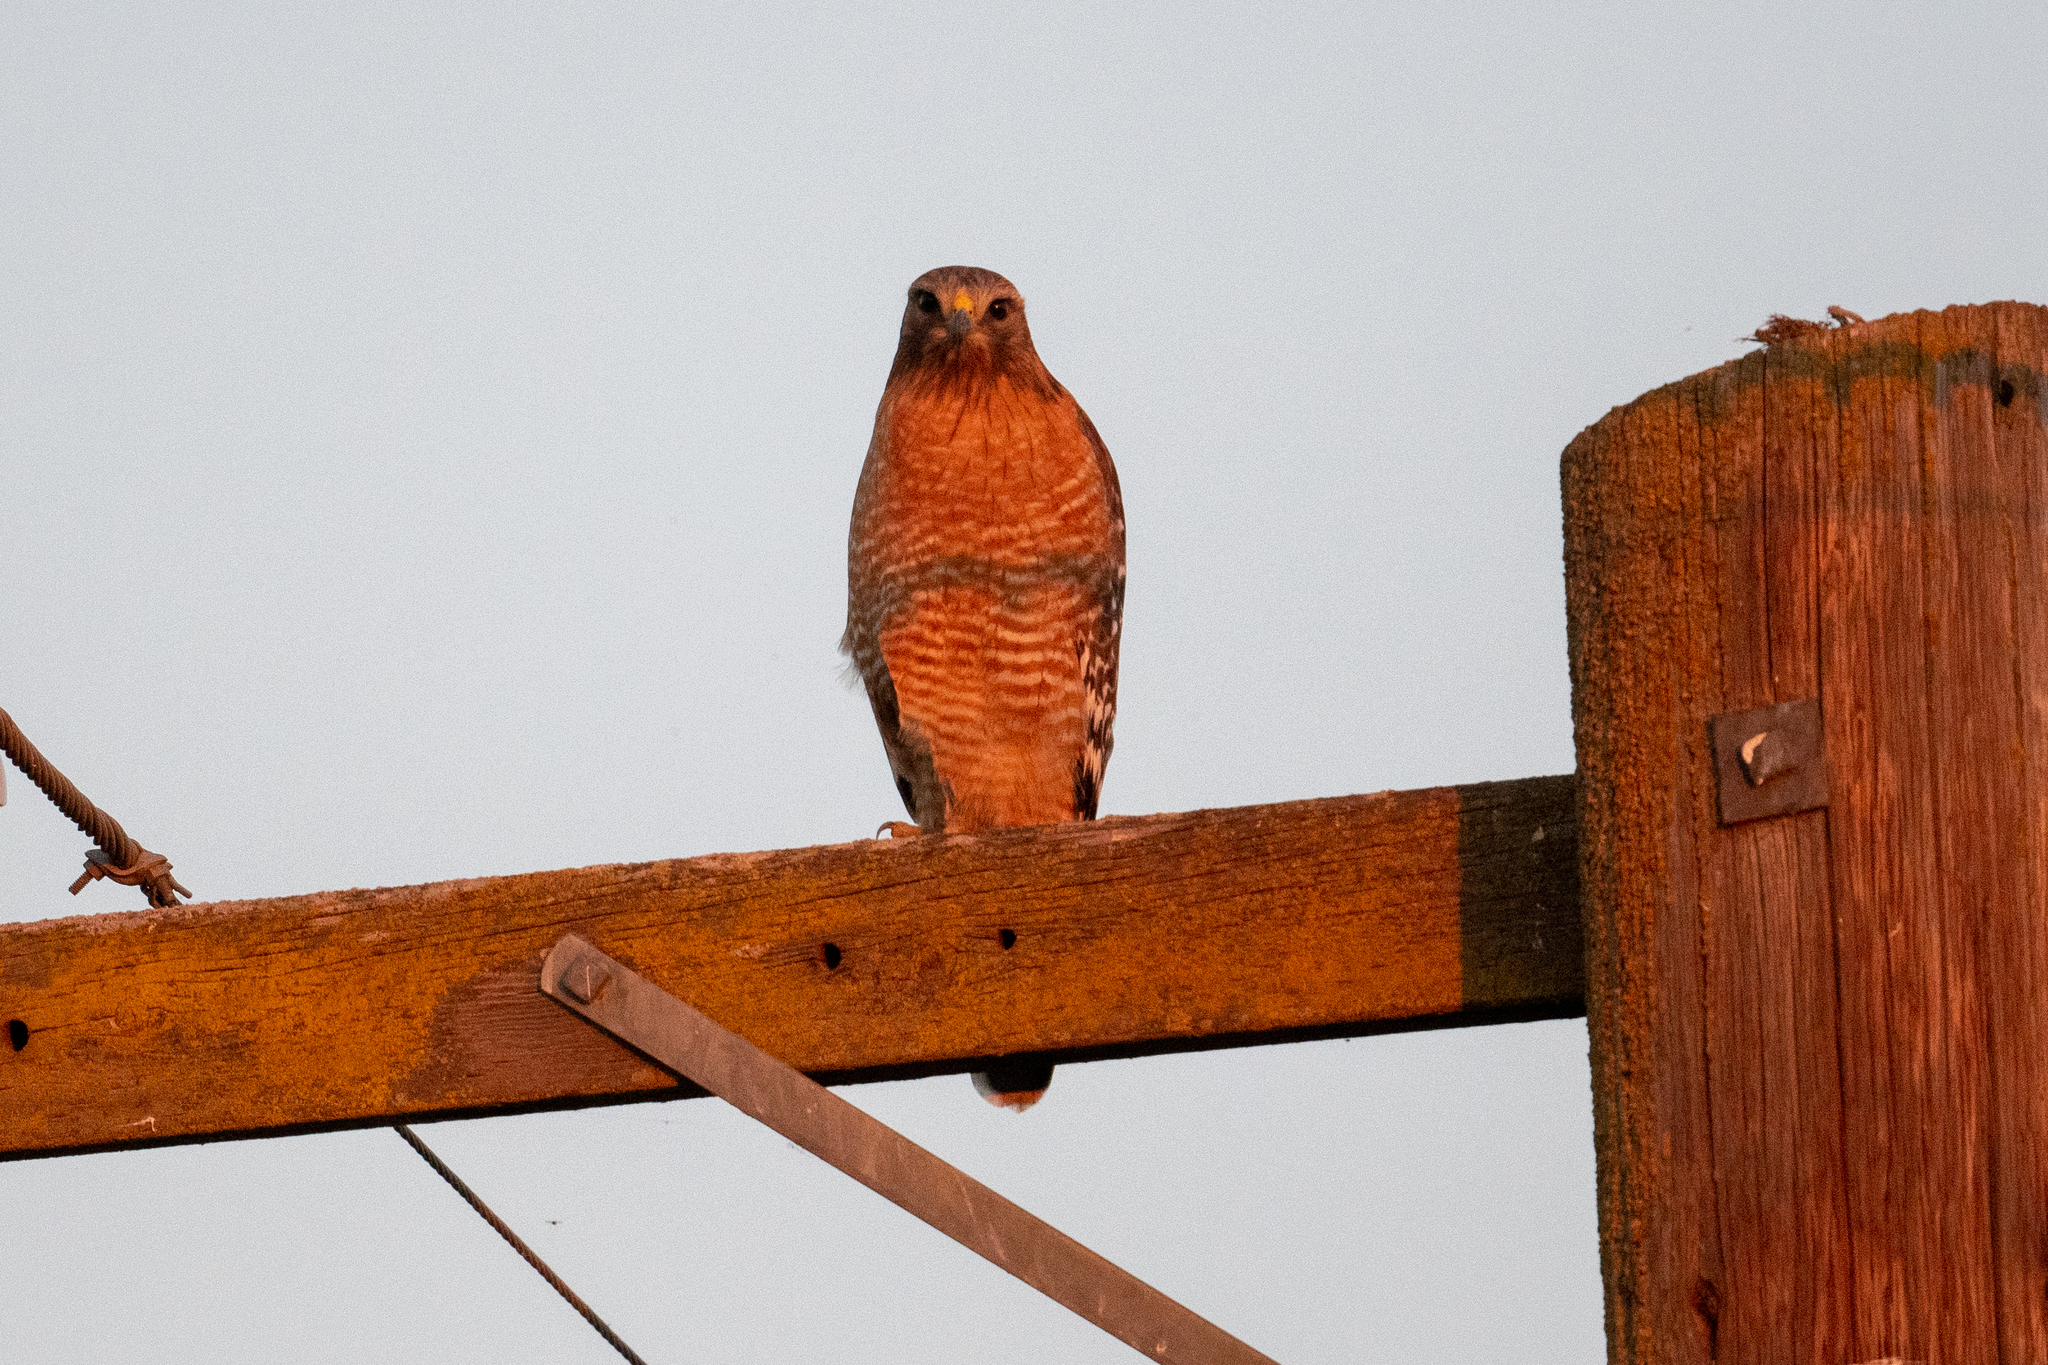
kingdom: Animalia
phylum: Chordata
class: Aves
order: Accipitriformes
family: Accipitridae
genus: Buteo
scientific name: Buteo lineatus
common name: Red-shouldered hawk
